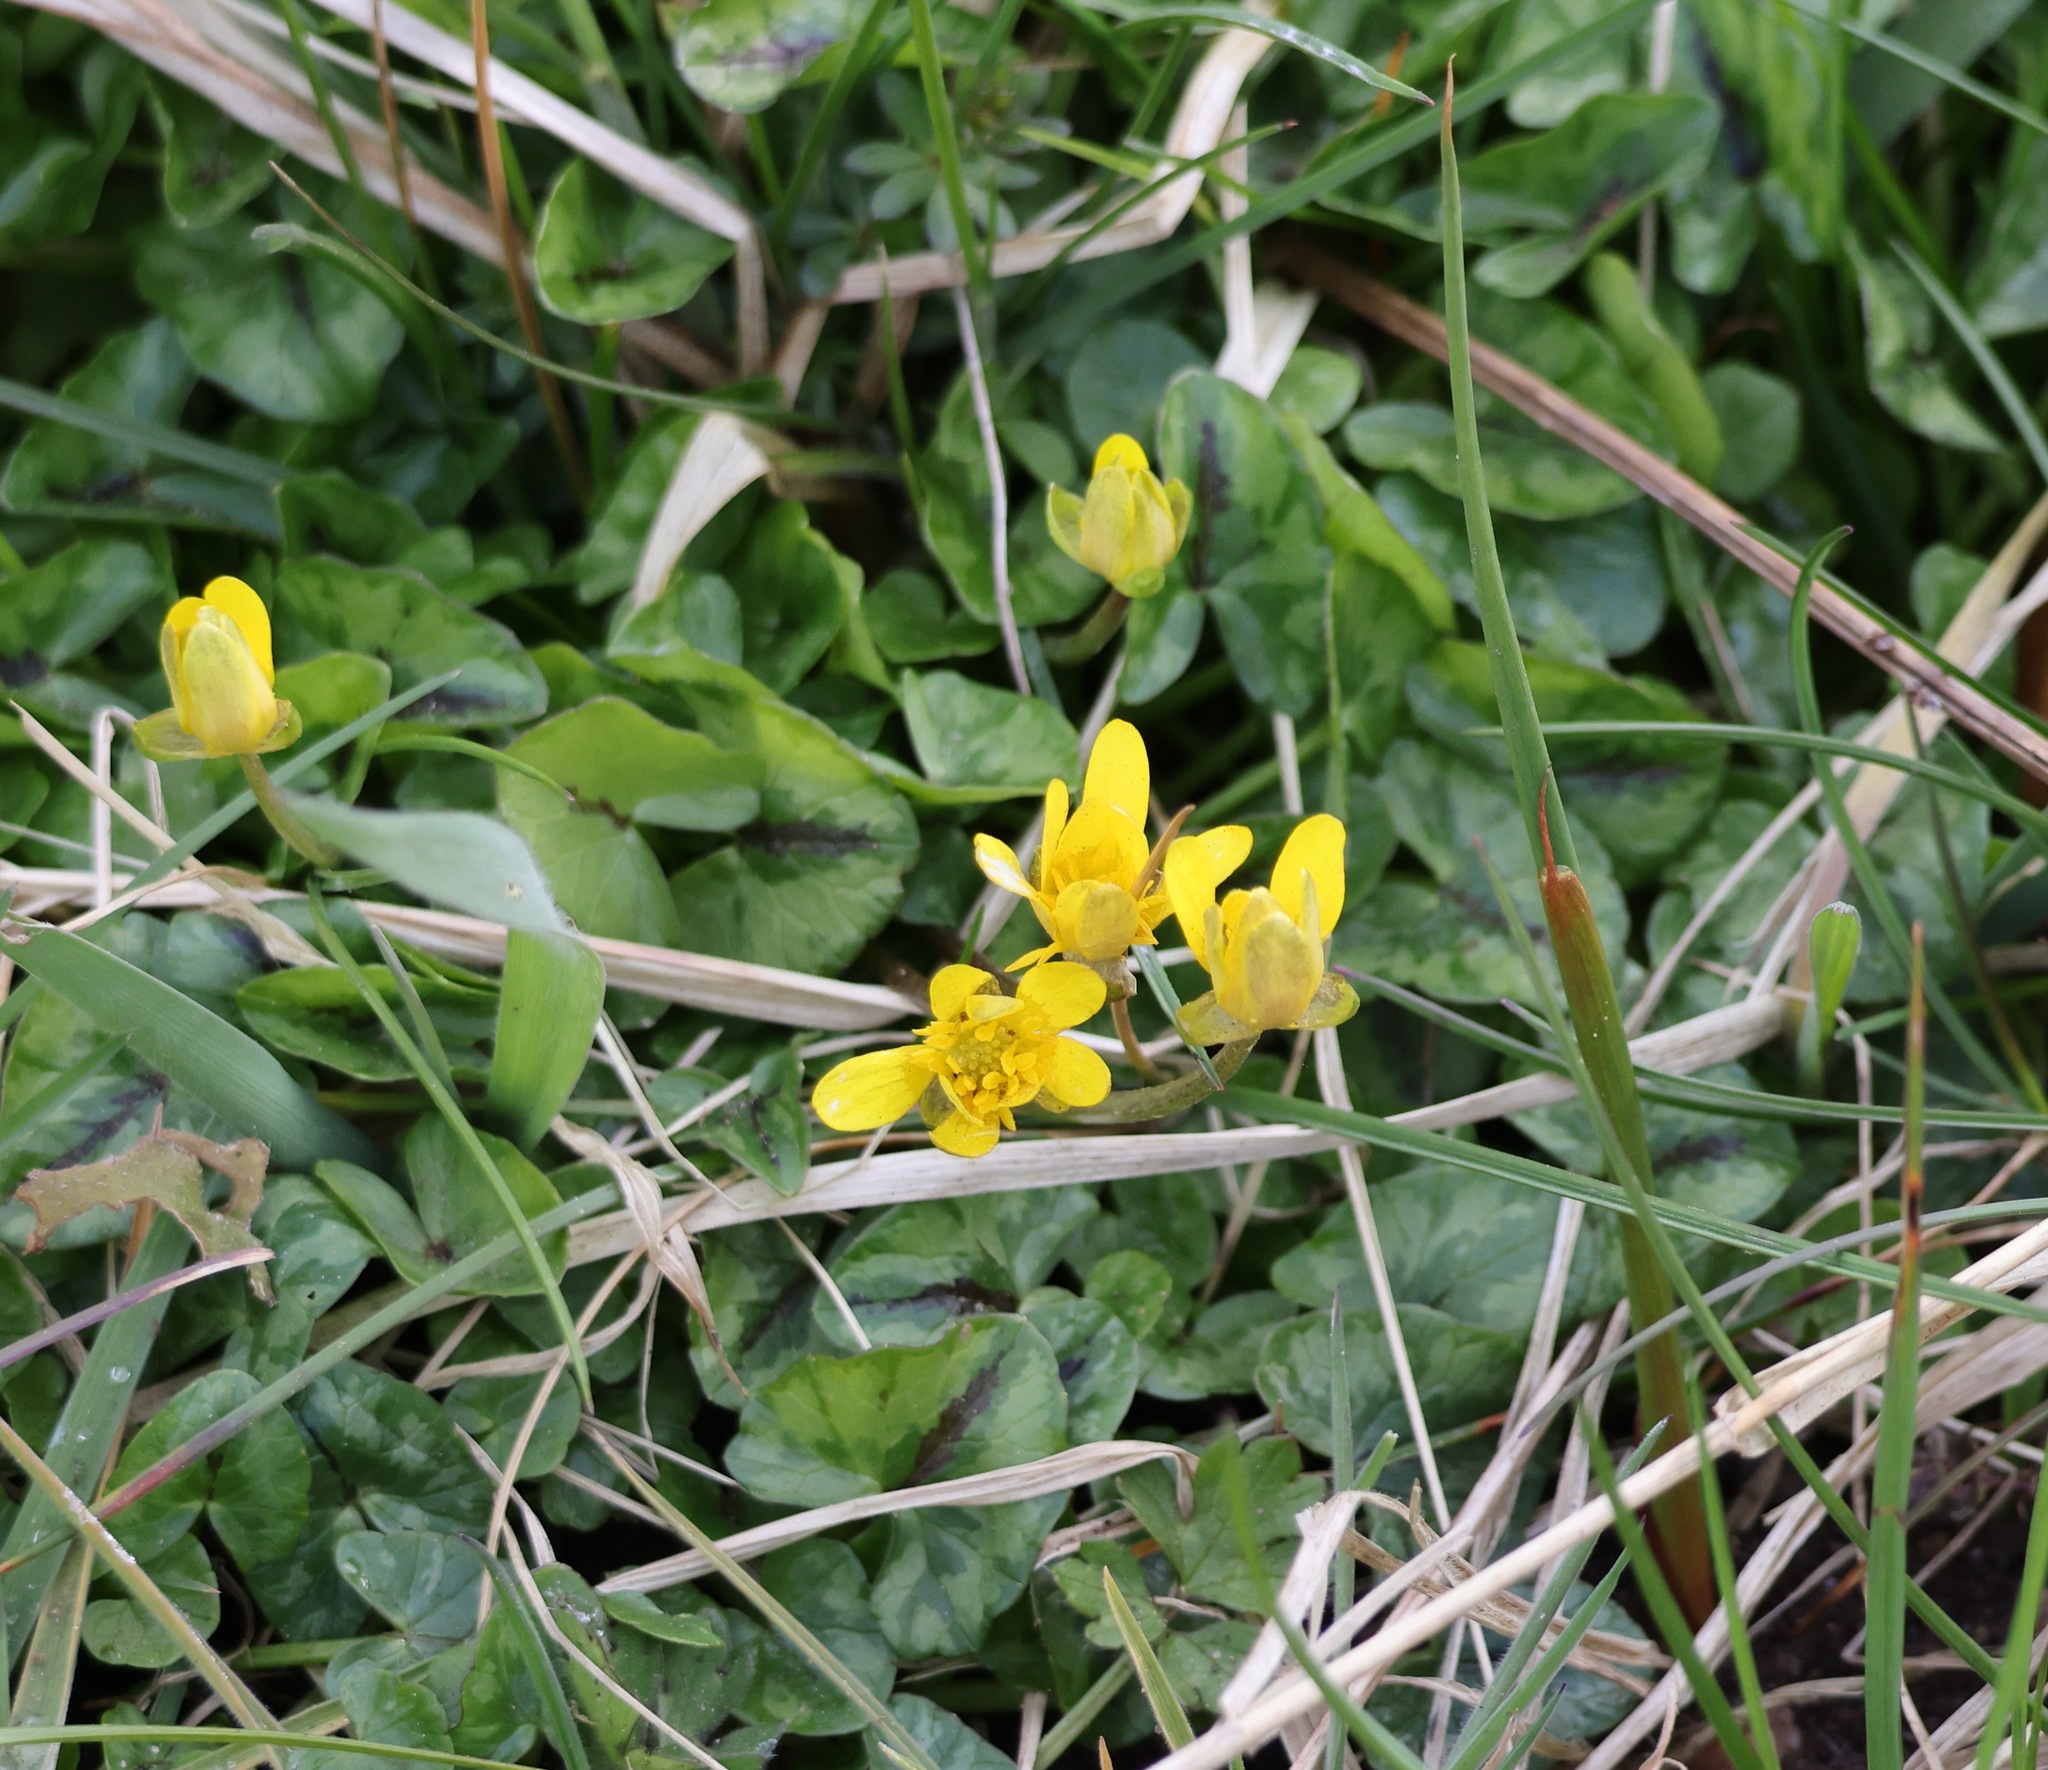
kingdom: Plantae
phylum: Tracheophyta
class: Magnoliopsida
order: Ranunculales
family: Ranunculaceae
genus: Ficaria
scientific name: Ficaria verna
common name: Lesser celandine
